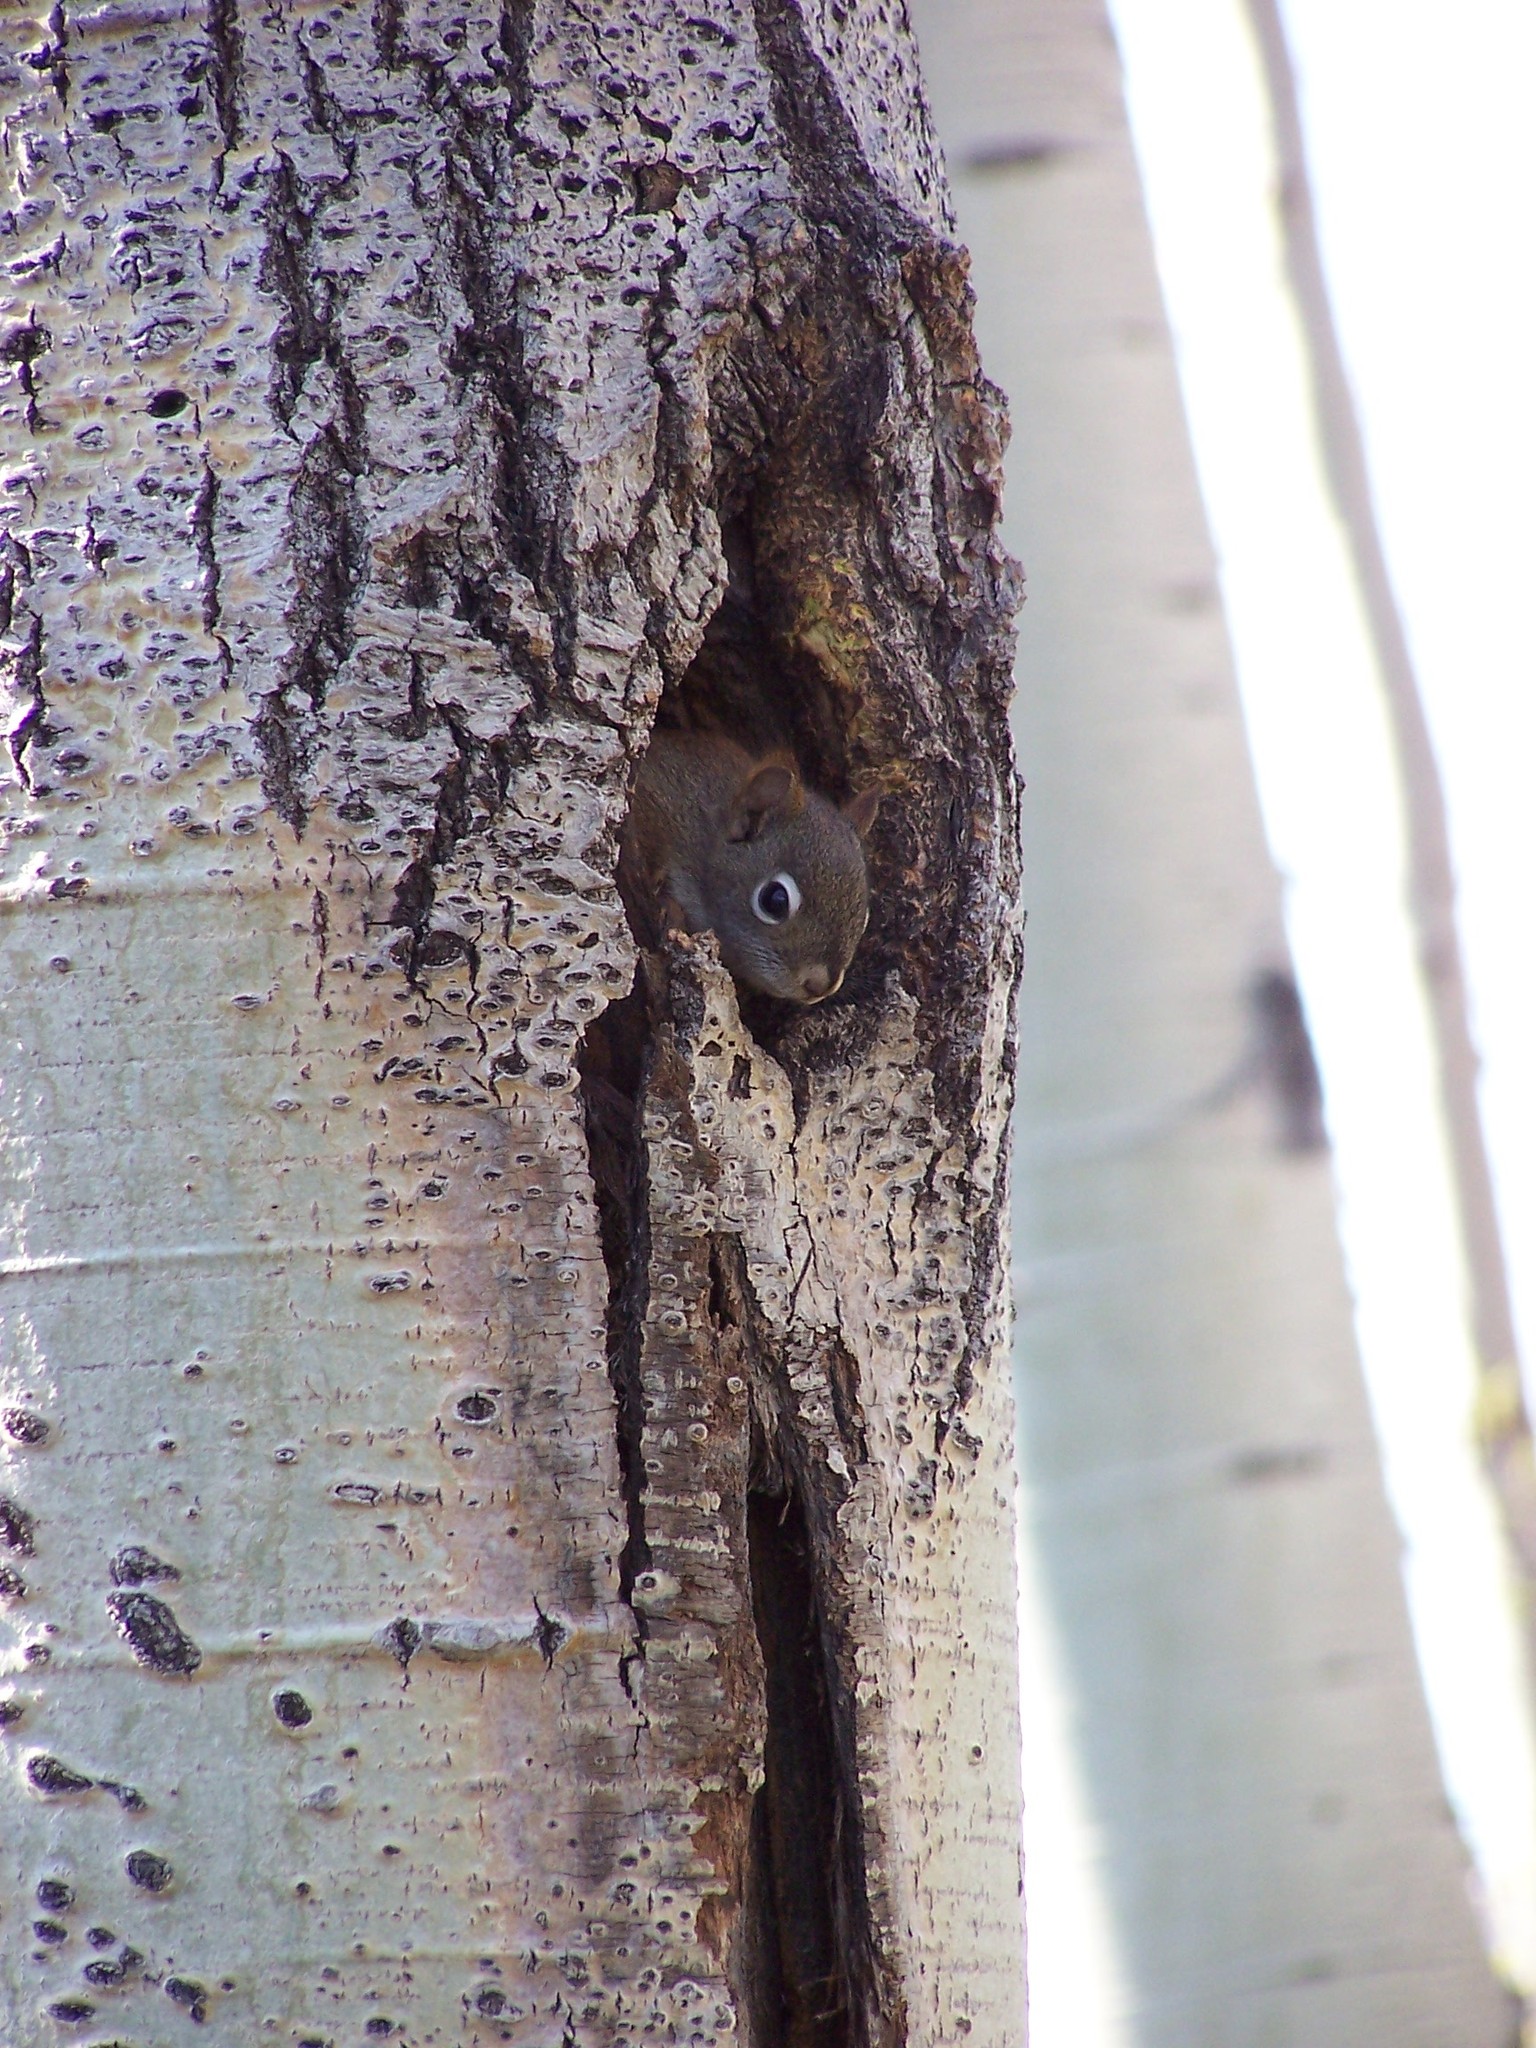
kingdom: Animalia
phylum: Chordata
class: Mammalia
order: Rodentia
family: Sciuridae
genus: Tamiasciurus
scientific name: Tamiasciurus hudsonicus
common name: Red squirrel
